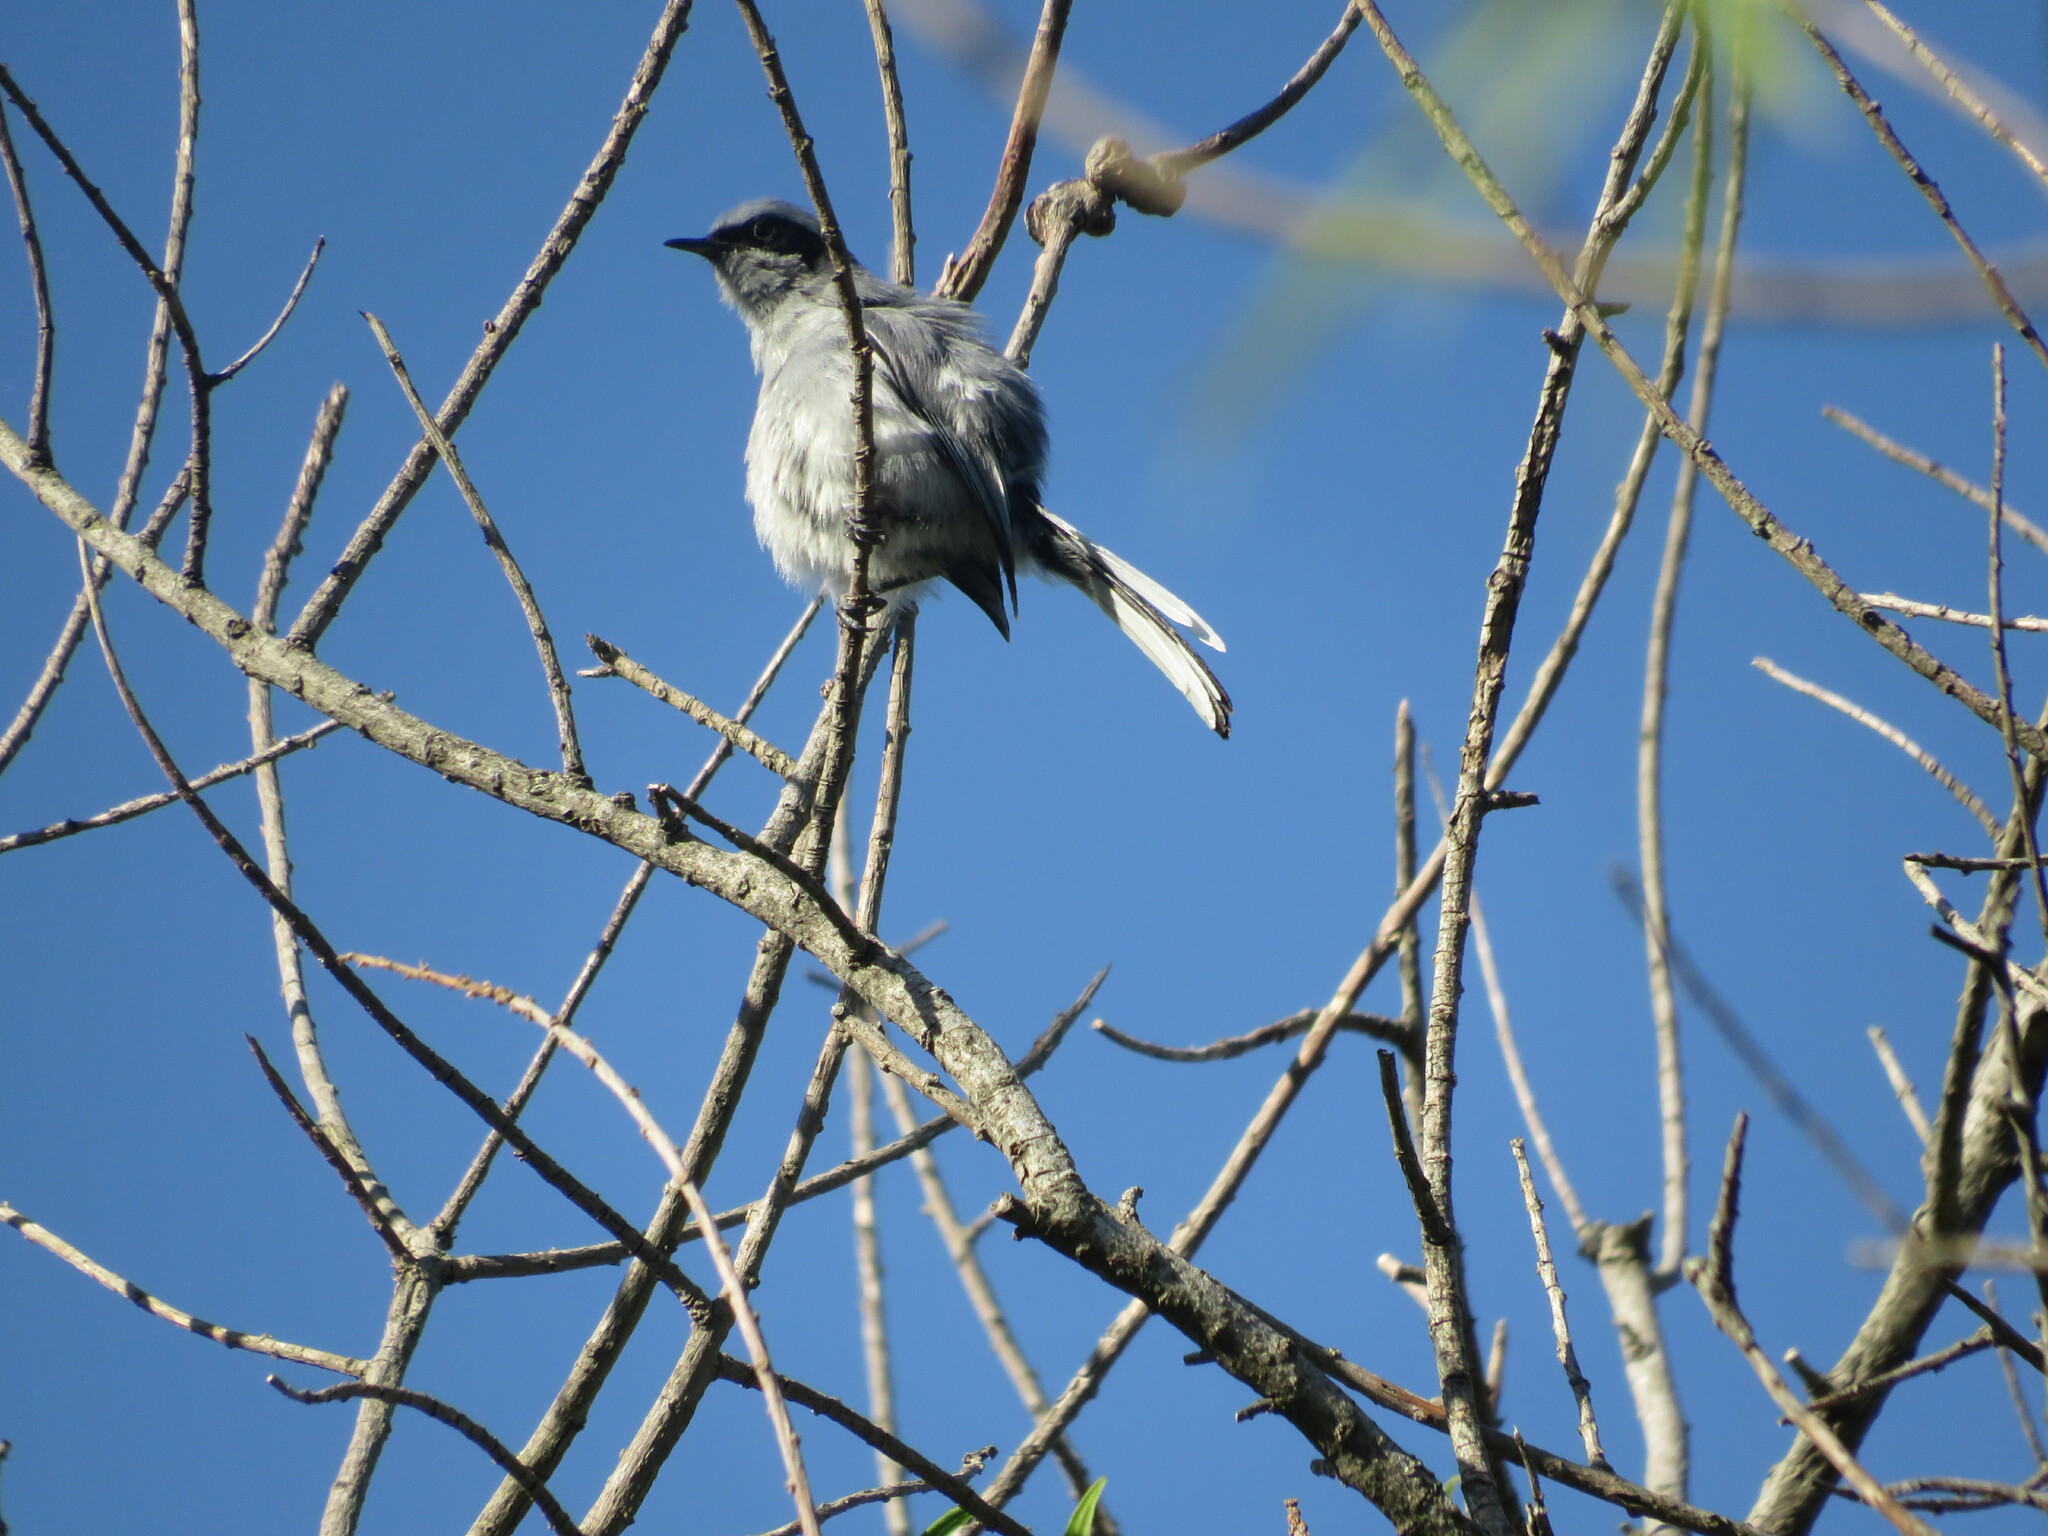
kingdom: Animalia
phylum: Chordata
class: Aves
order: Passeriformes
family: Polioptilidae
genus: Polioptila
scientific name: Polioptila dumicola
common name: Masked gnatcatcher
